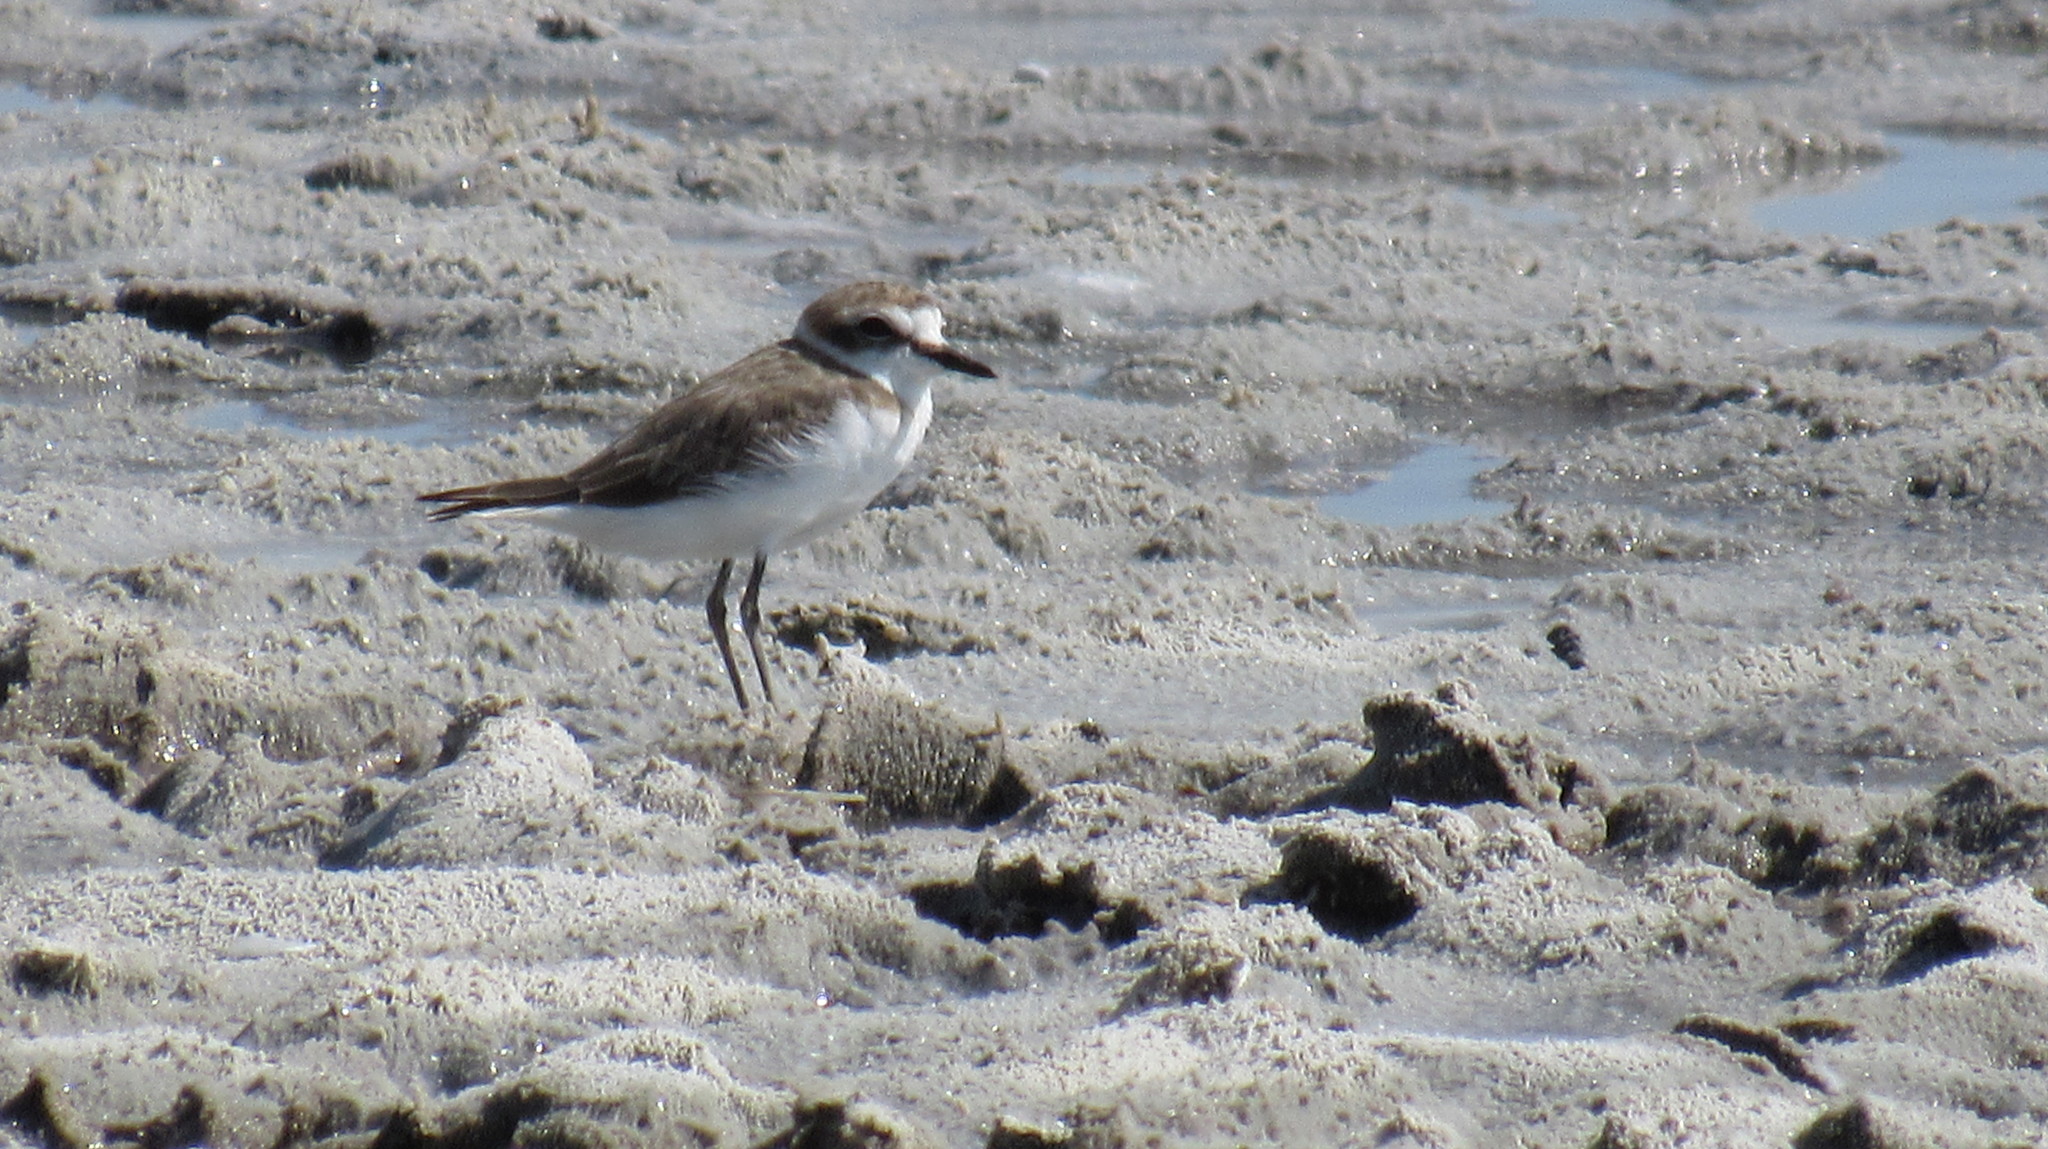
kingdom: Animalia
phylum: Chordata
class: Aves
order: Charadriiformes
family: Charadriidae
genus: Charadrius
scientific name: Charadrius alexandrinus
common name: Kentish plover
